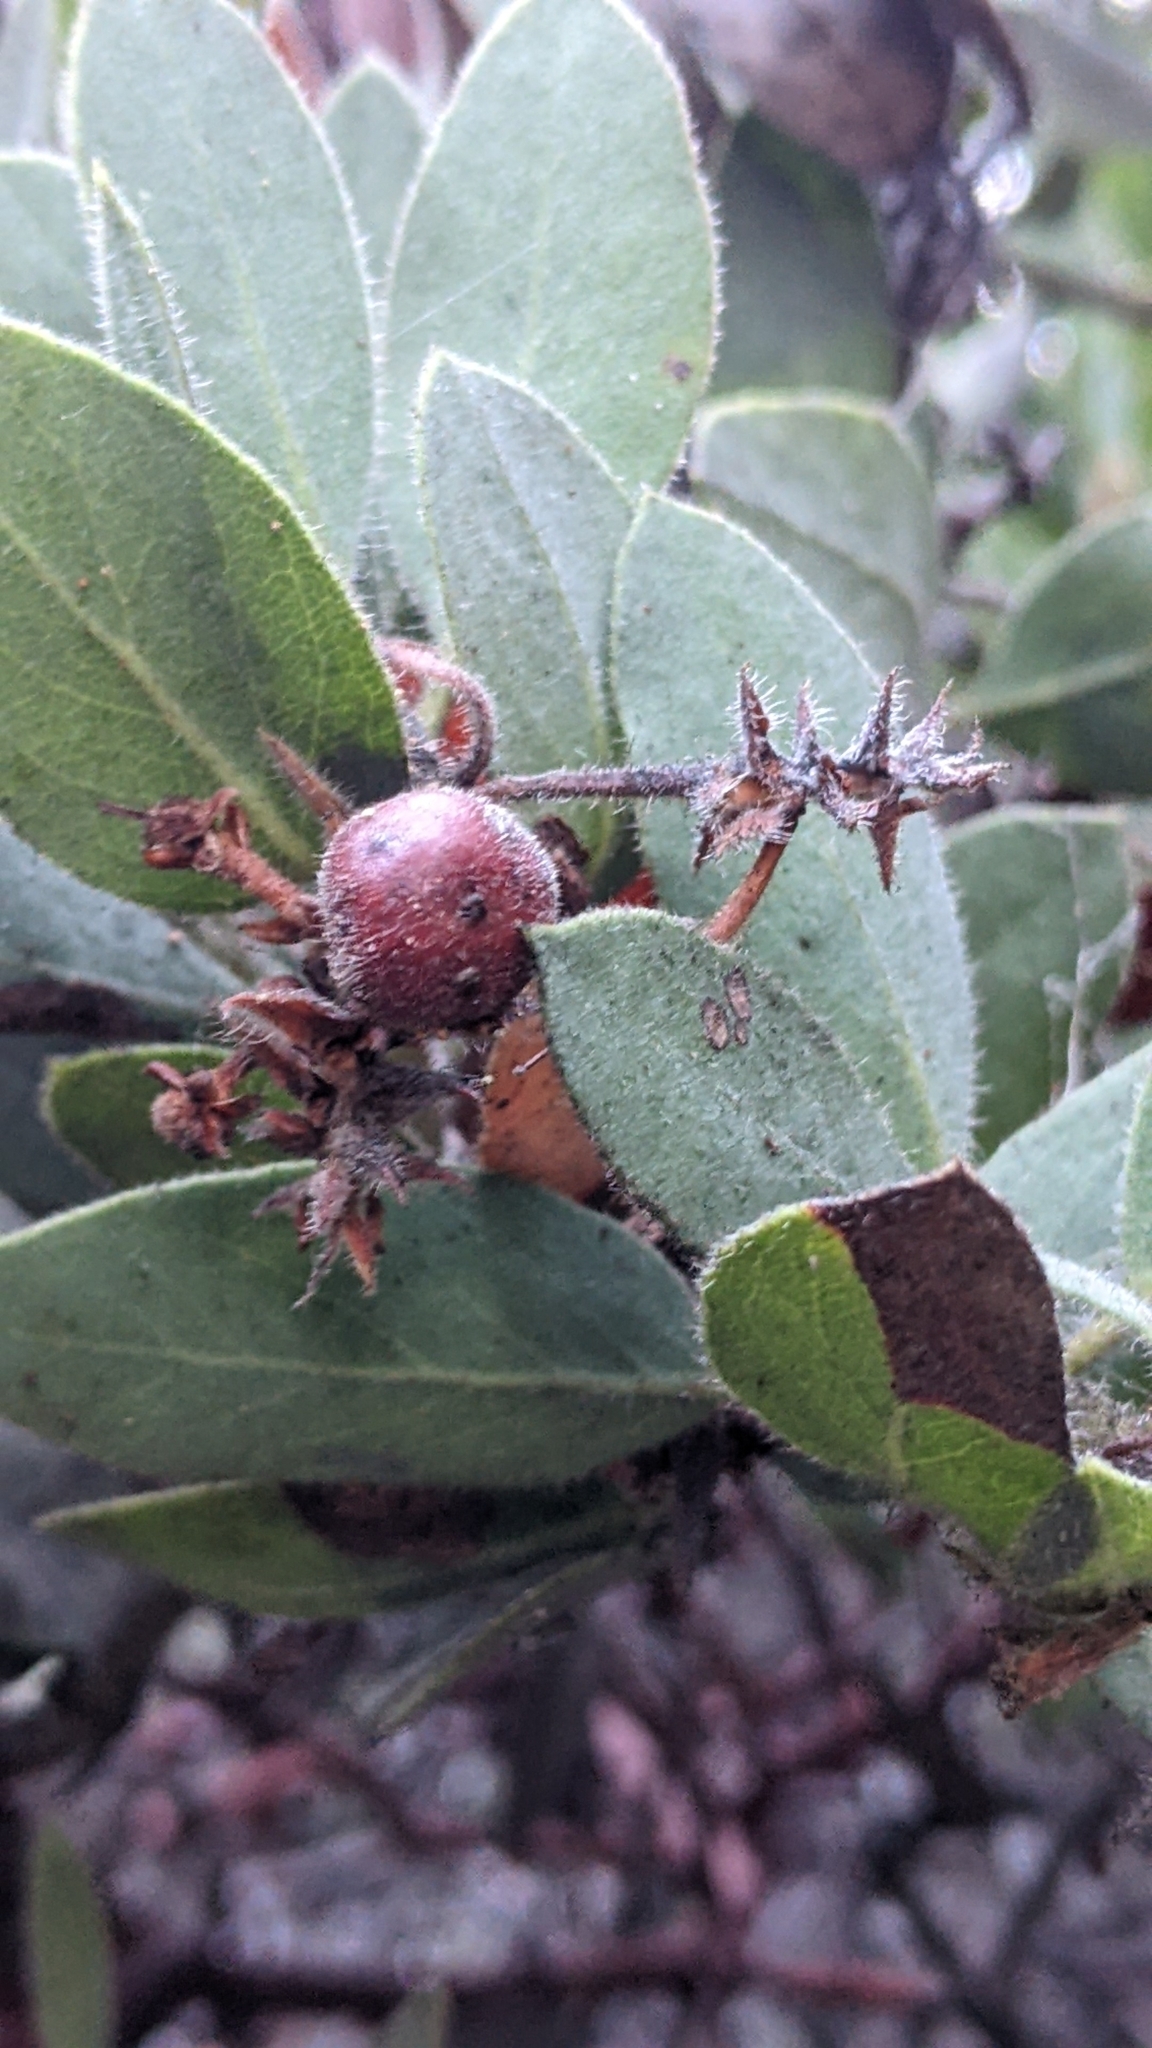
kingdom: Plantae
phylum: Tracheophyta
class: Magnoliopsida
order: Ericales
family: Ericaceae
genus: Arctostaphylos
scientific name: Arctostaphylos glandulosa
